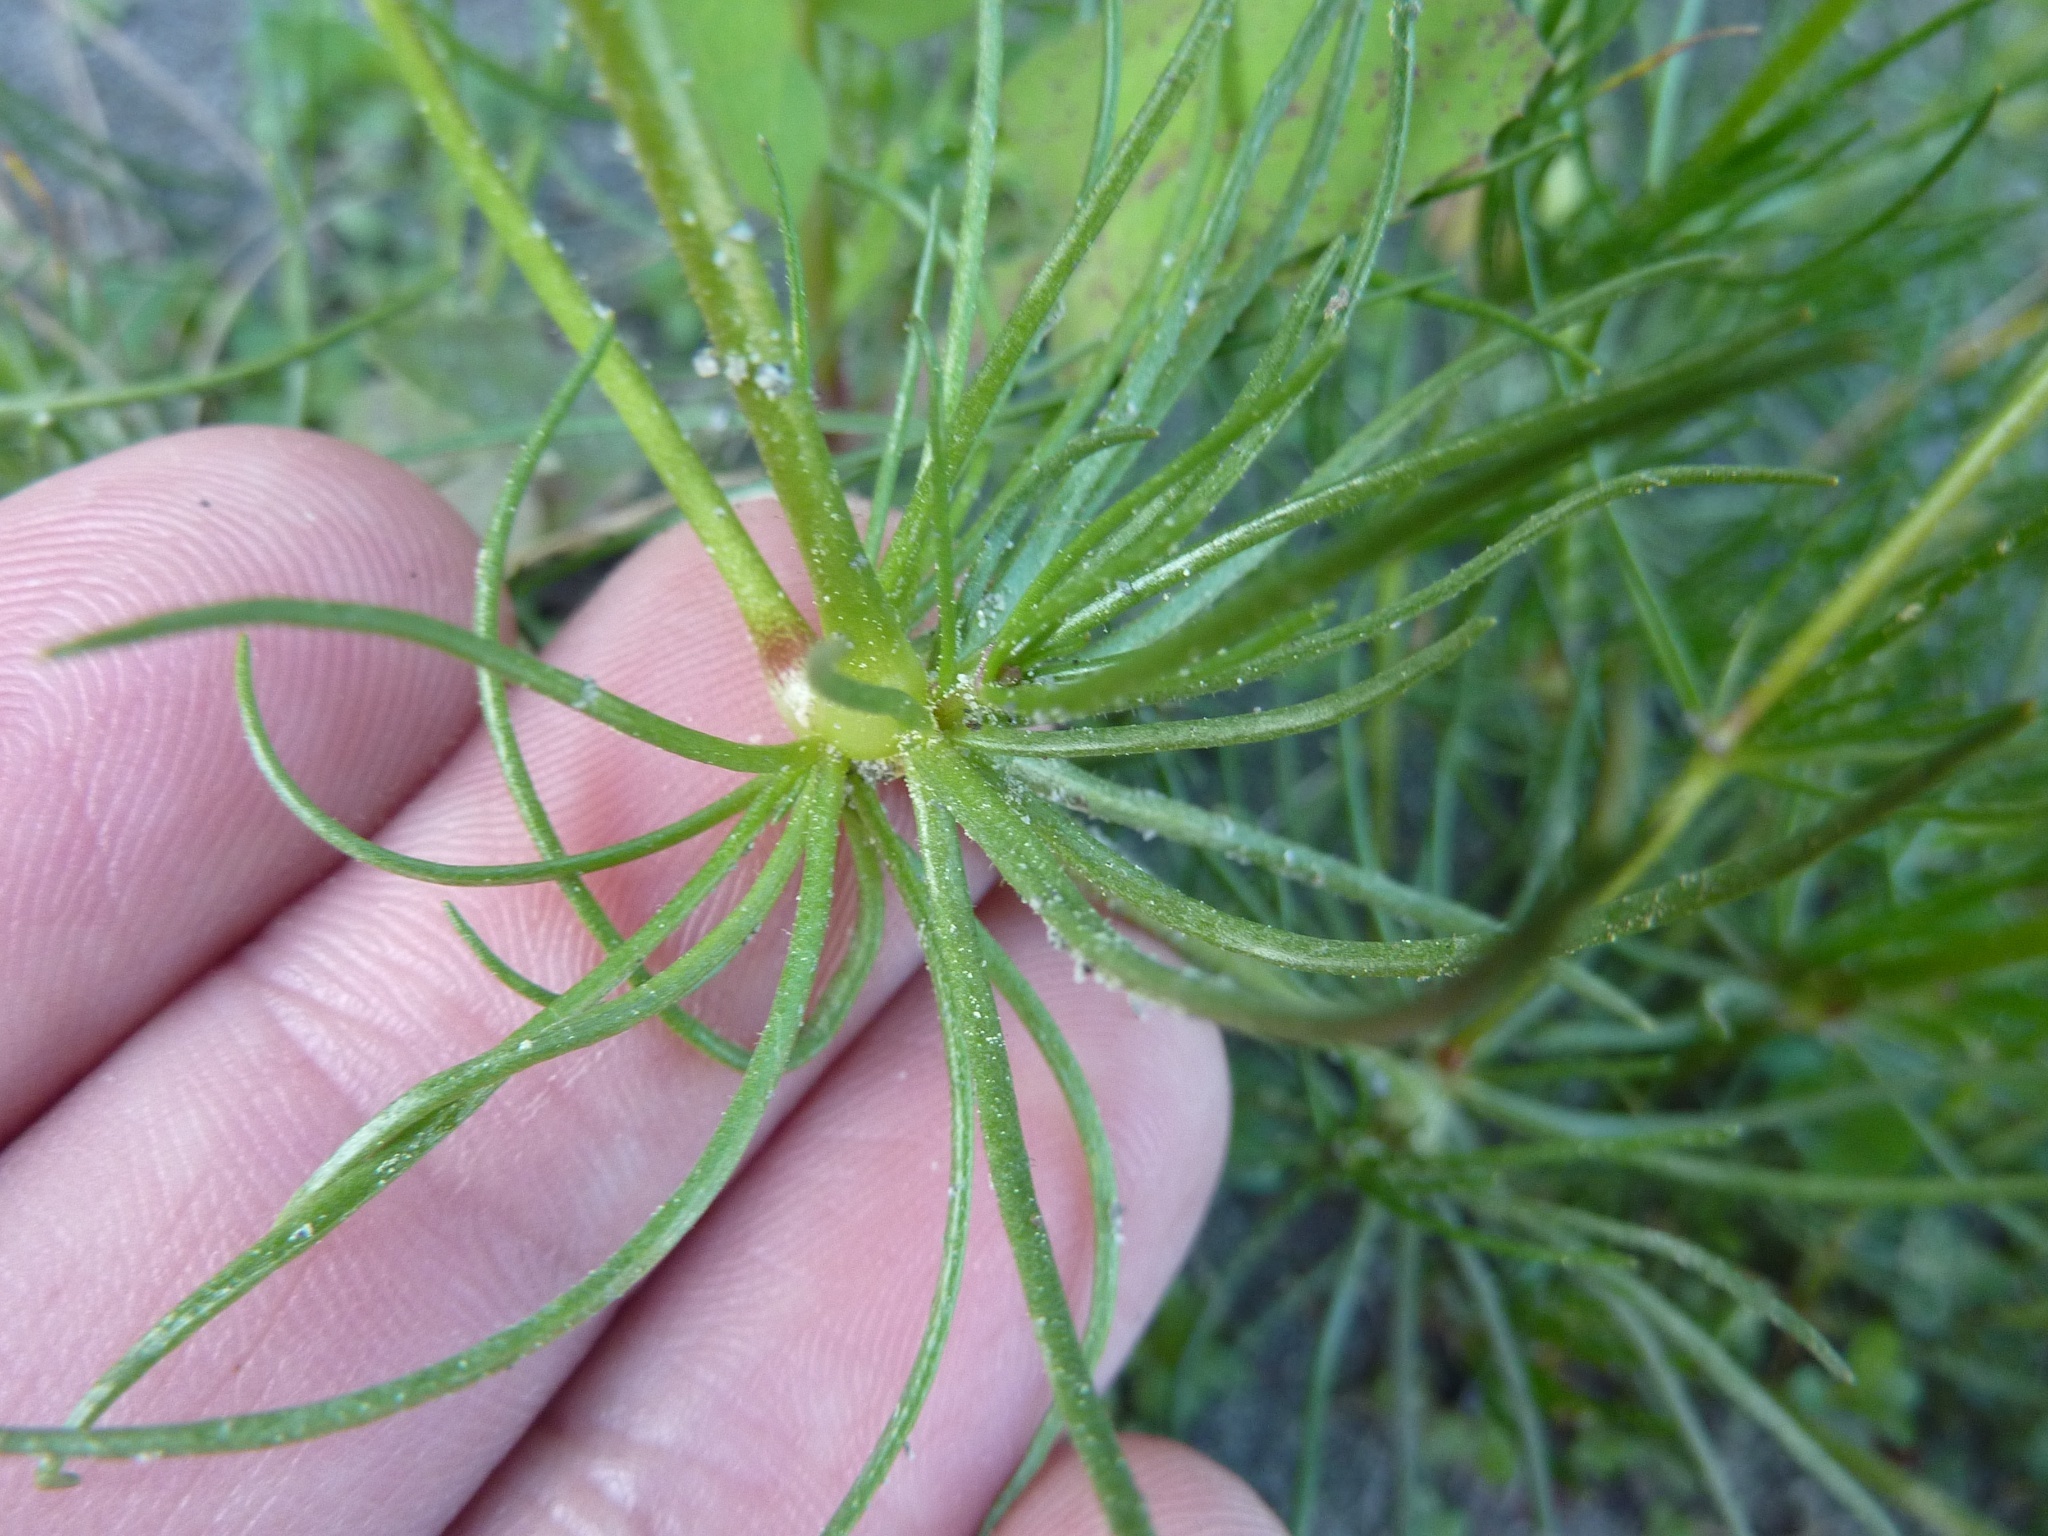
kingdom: Plantae
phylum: Tracheophyta
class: Magnoliopsida
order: Caryophyllales
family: Caryophyllaceae
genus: Spergula
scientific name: Spergula arvensis
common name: Corn spurrey
